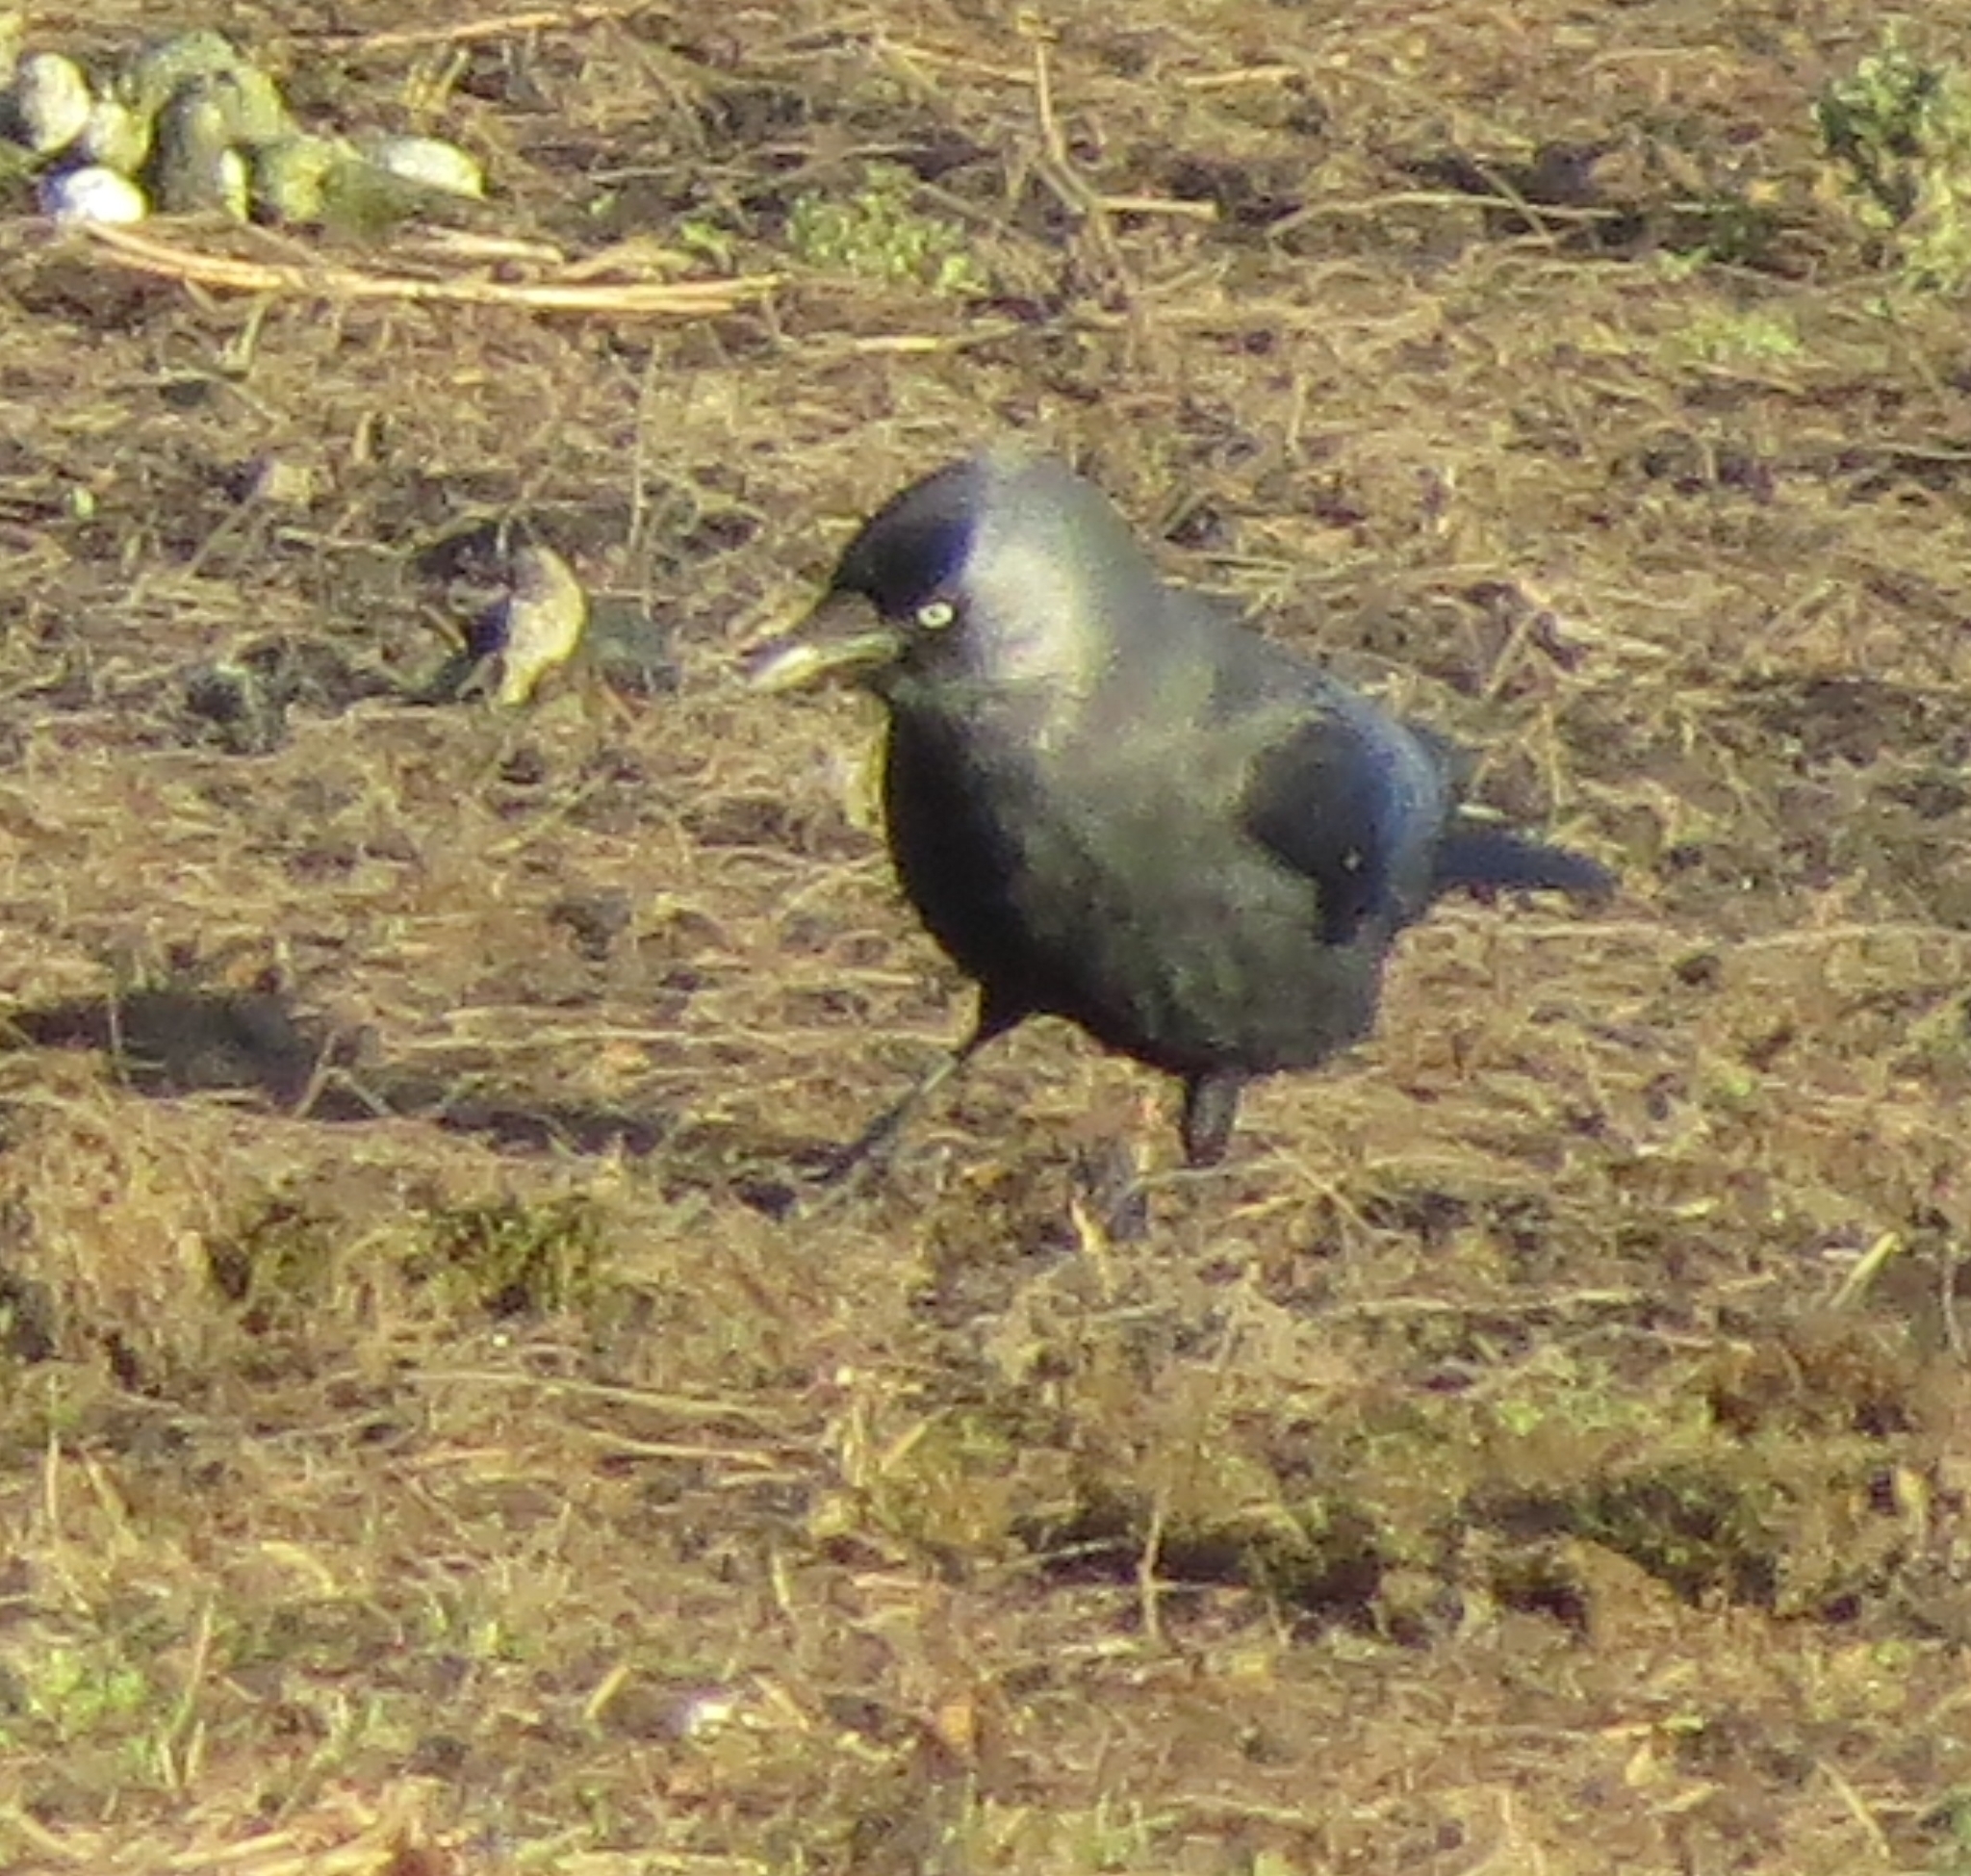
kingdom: Animalia
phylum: Chordata
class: Aves
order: Passeriformes
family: Corvidae
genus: Coloeus
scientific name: Coloeus monedula
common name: Western jackdaw
